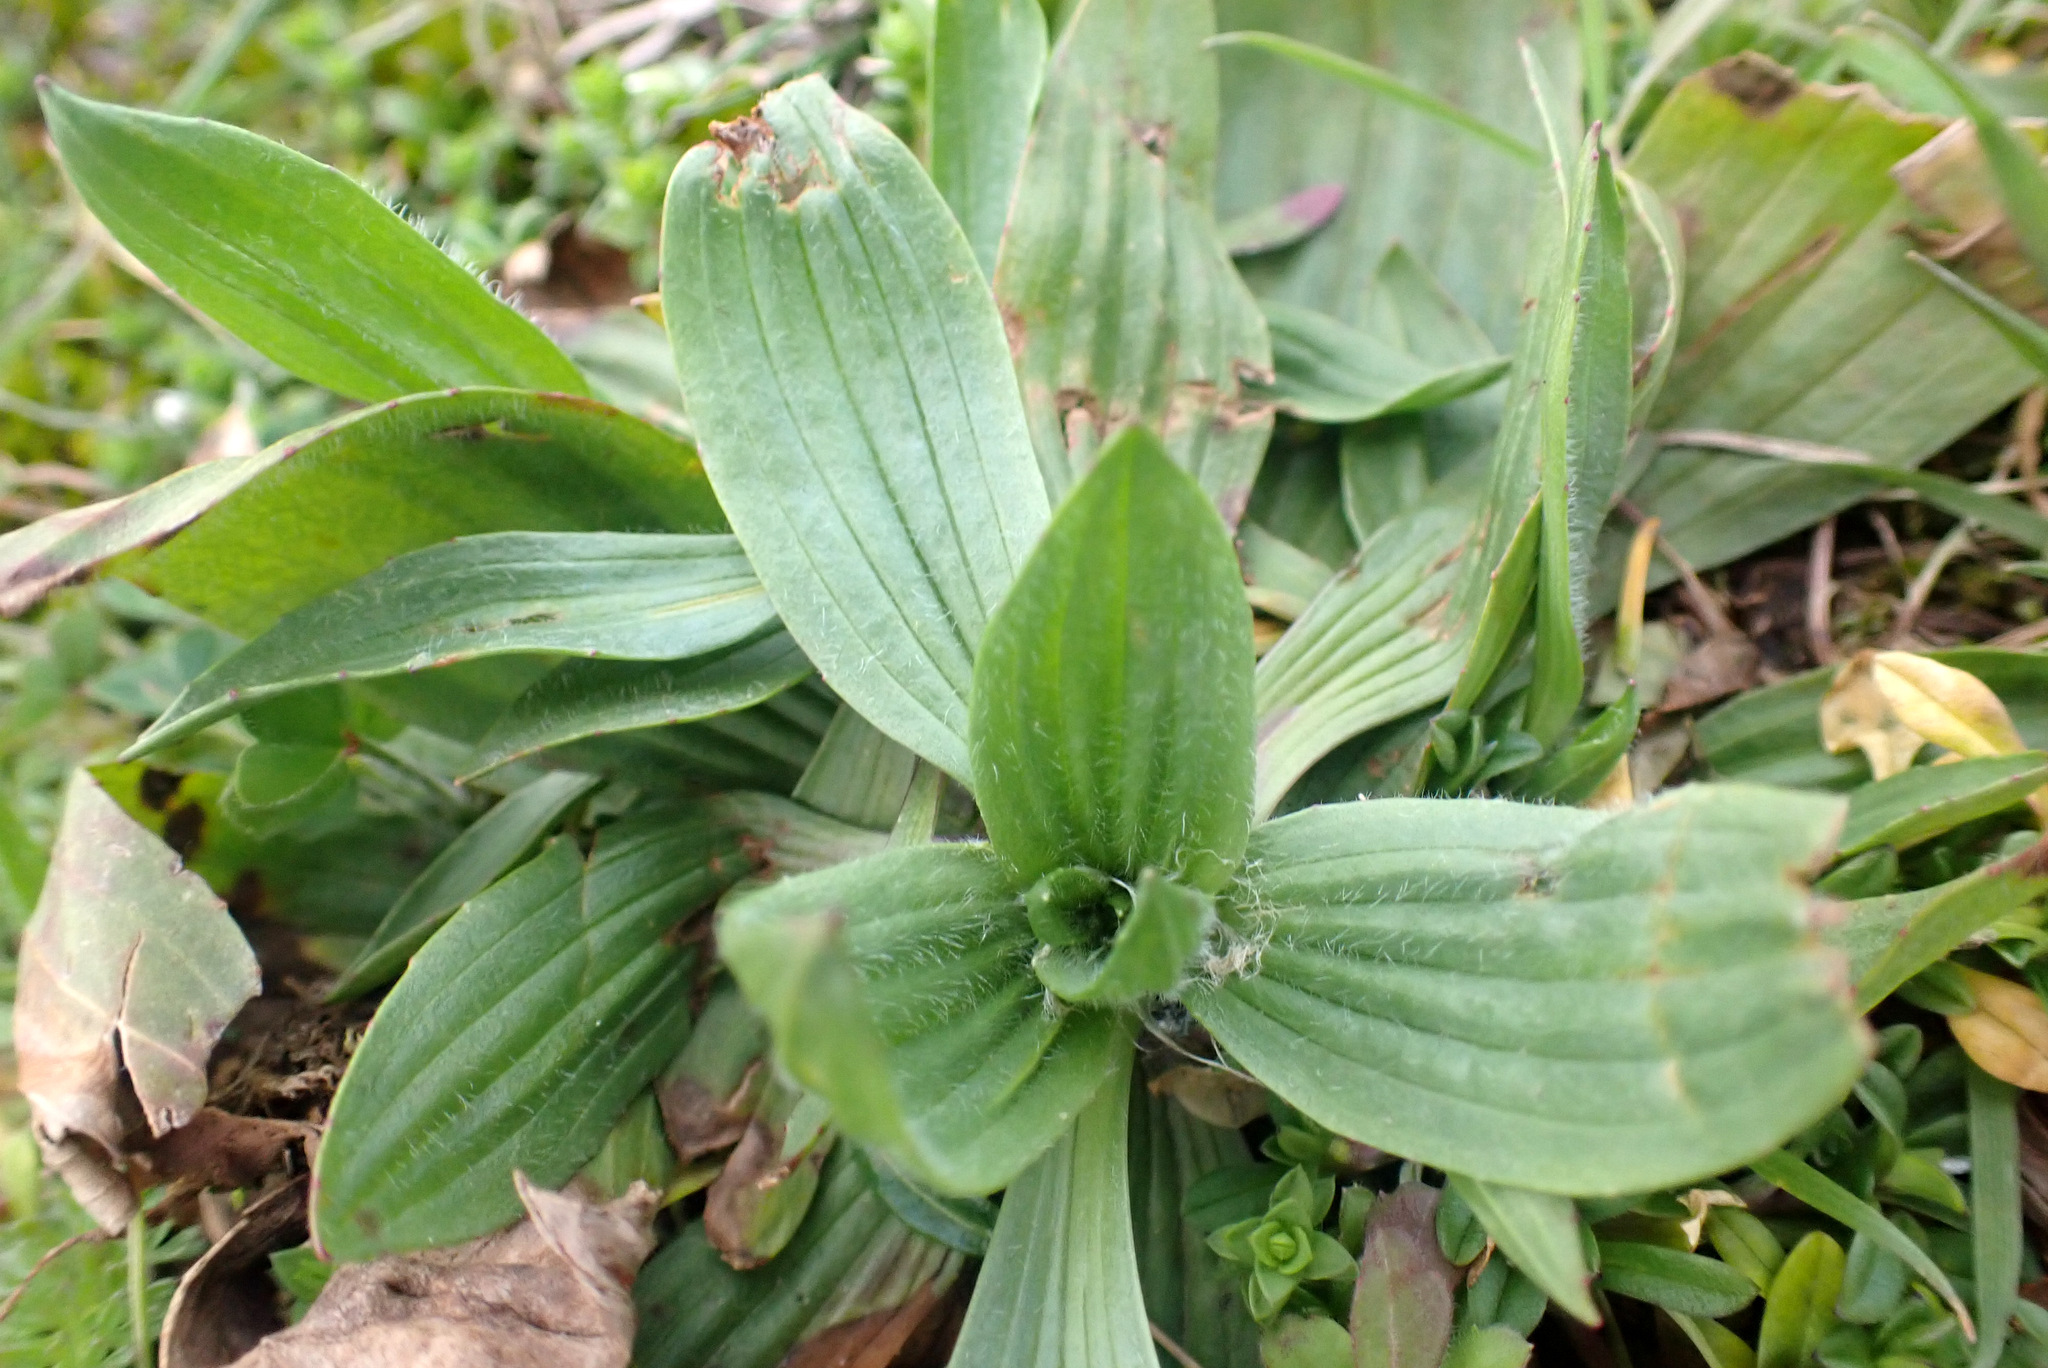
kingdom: Plantae
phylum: Tracheophyta
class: Magnoliopsida
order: Lamiales
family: Plantaginaceae
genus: Plantago
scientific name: Plantago lanceolata
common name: Ribwort plantain
